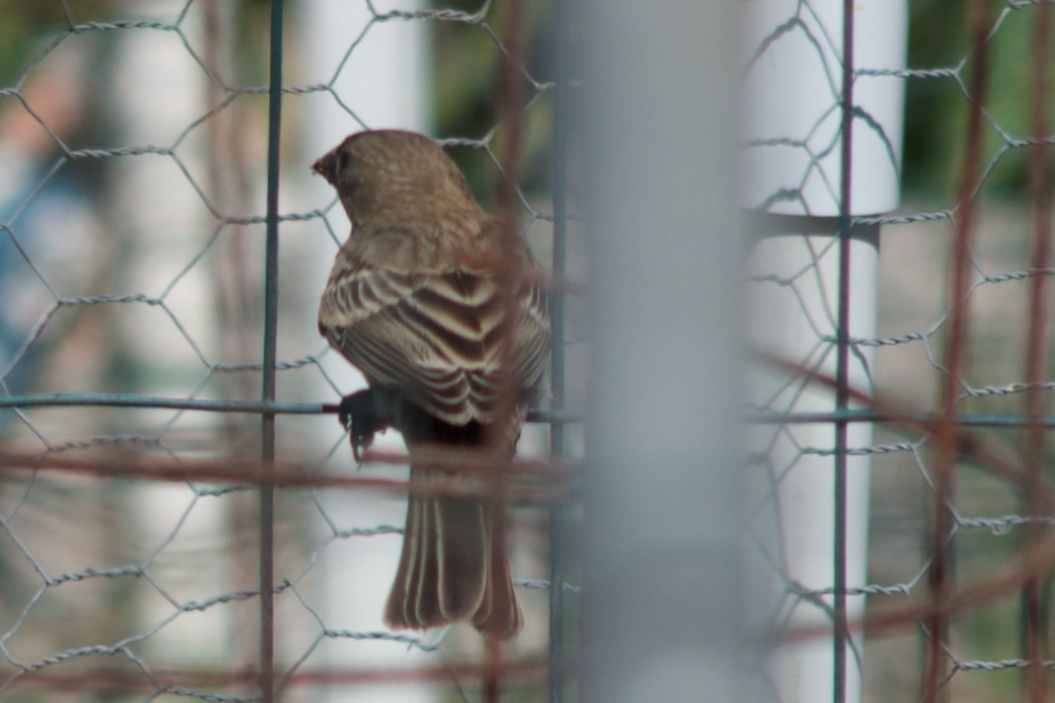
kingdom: Animalia
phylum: Chordata
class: Aves
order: Passeriformes
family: Fringillidae
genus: Haemorhous
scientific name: Haemorhous mexicanus
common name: House finch
